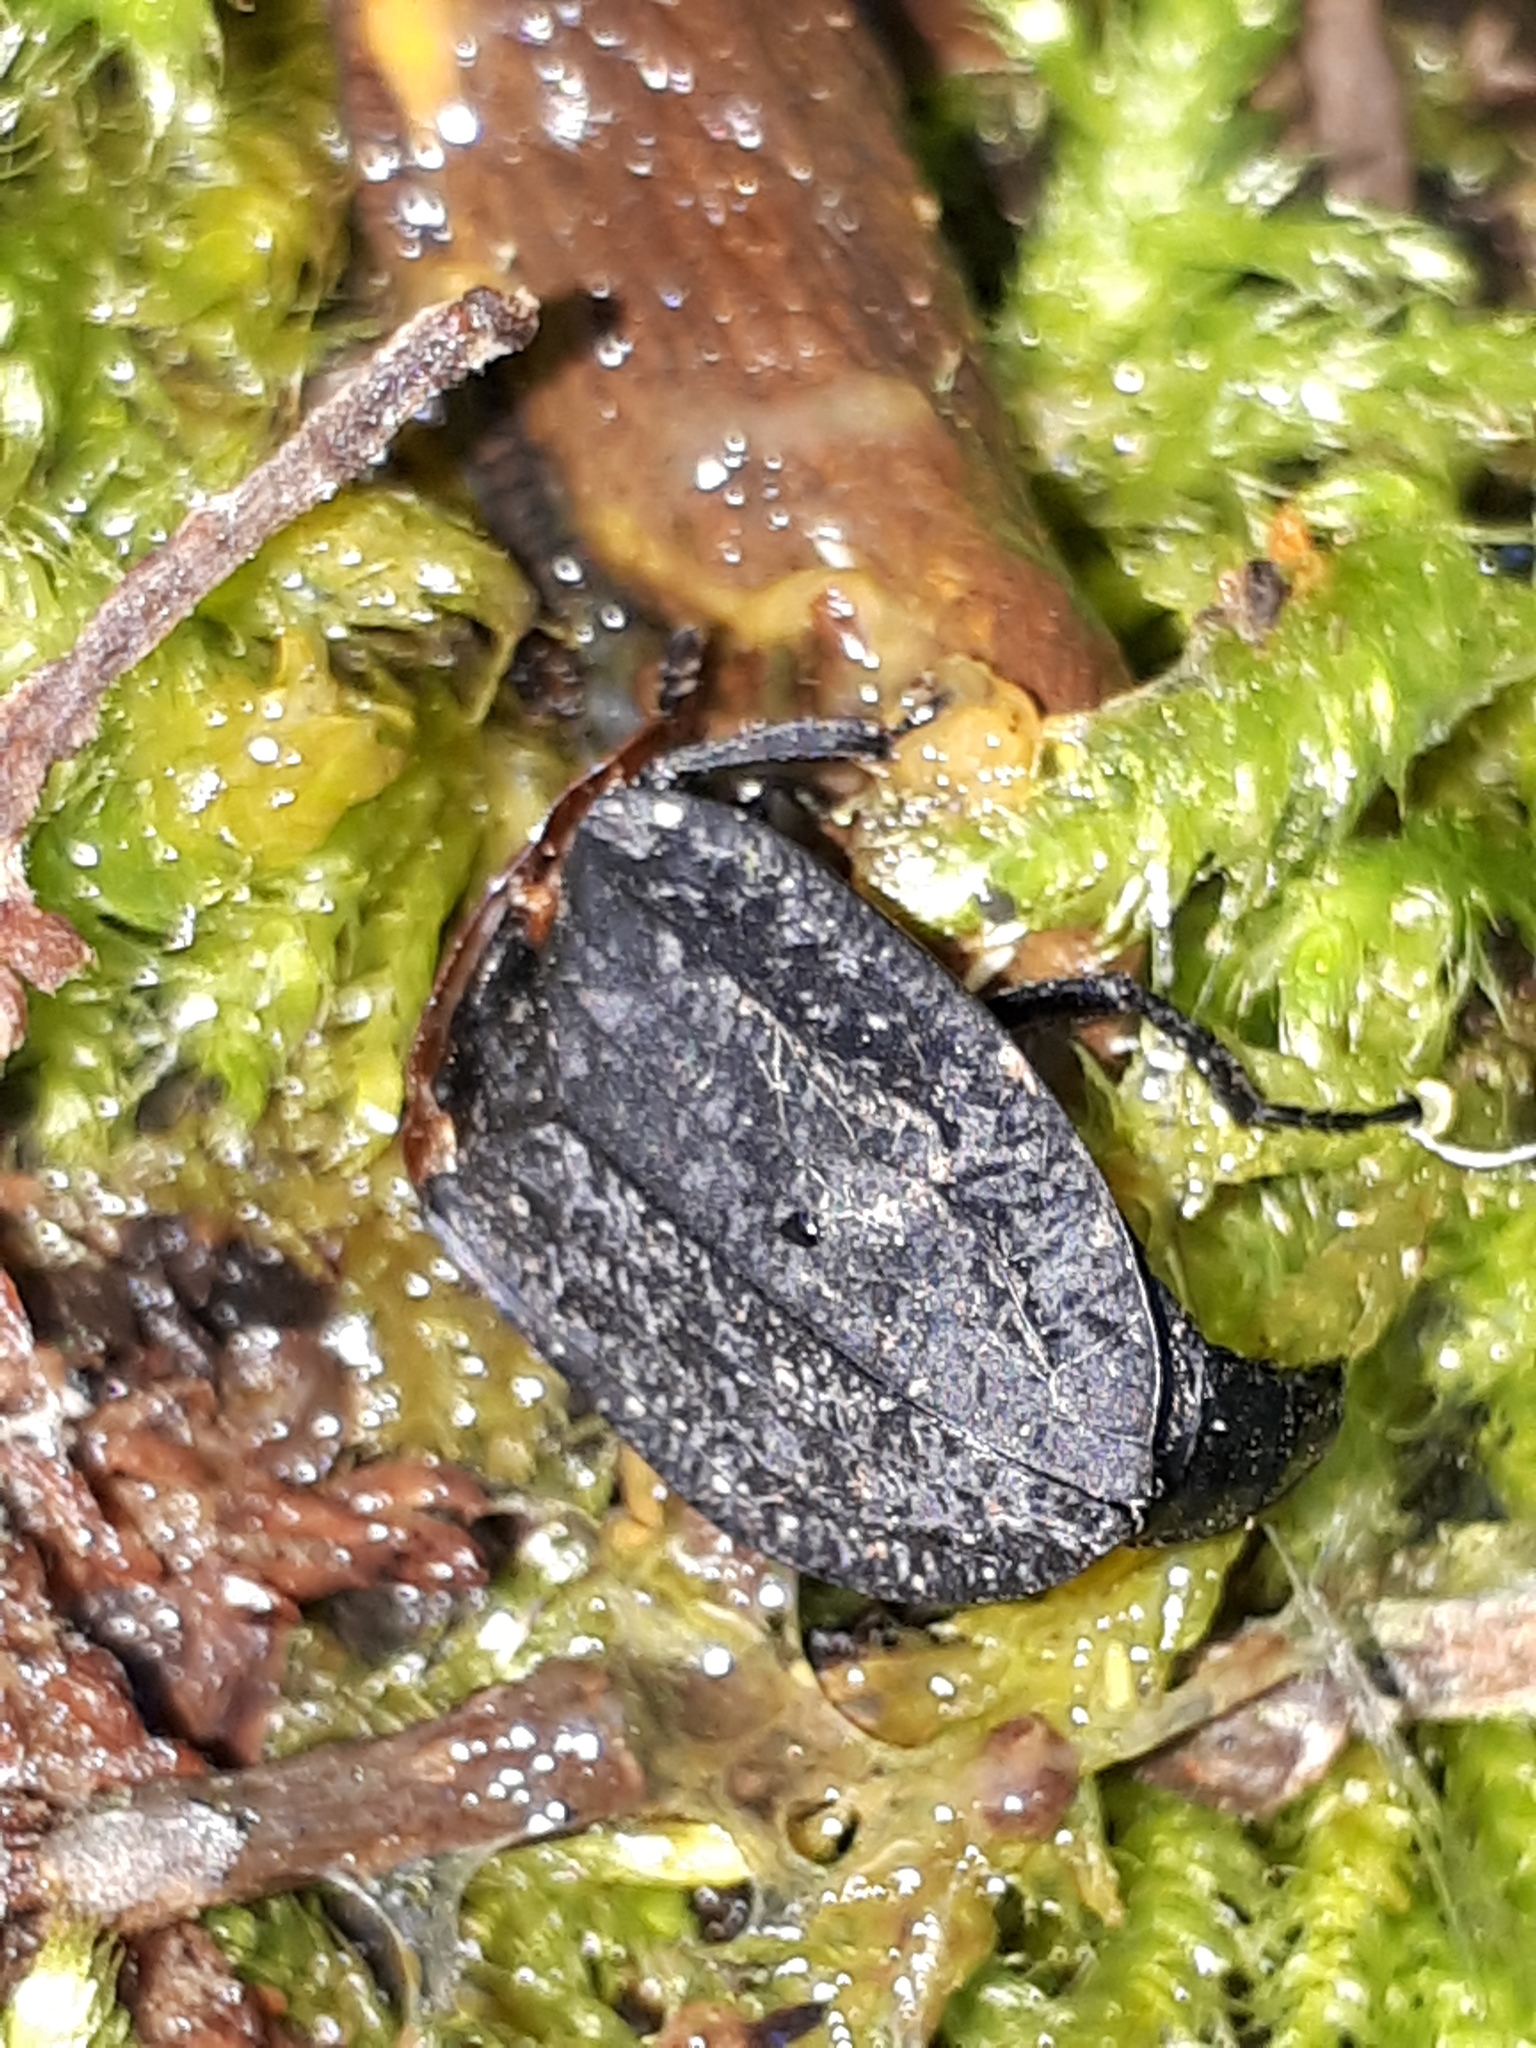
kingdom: Animalia
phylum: Arthropoda
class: Insecta
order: Coleoptera
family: Staphylinidae
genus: Oiceoptoma
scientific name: Oiceoptoma thoracicum
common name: Red-breasted carrion beetle
